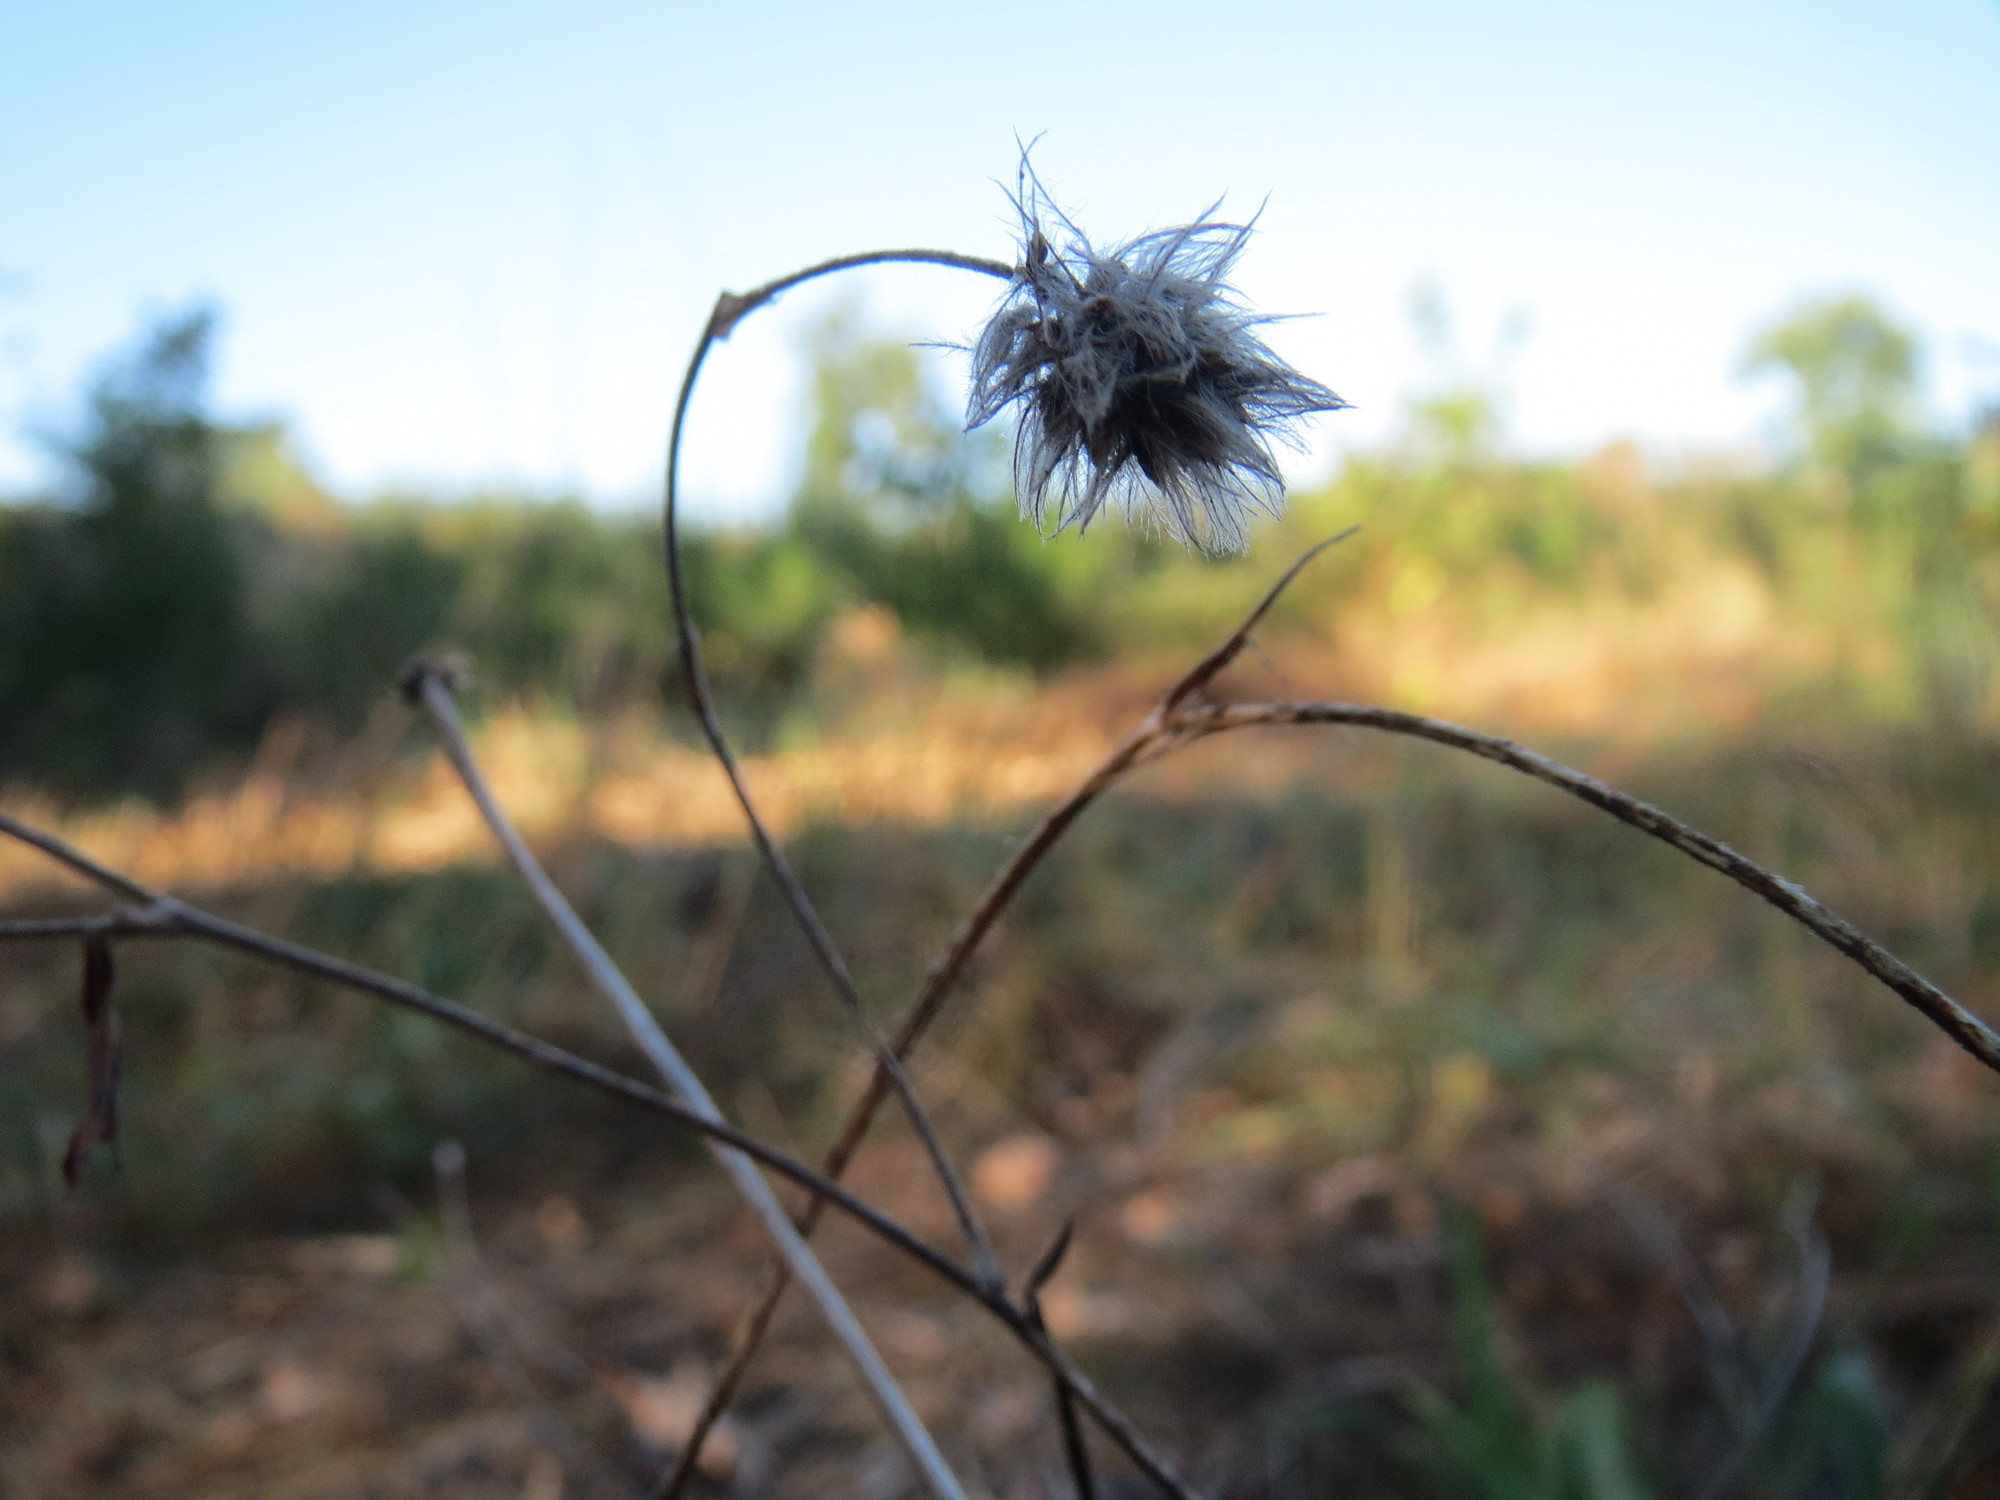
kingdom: Plantae
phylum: Tracheophyta
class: Magnoliopsida
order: Fabales
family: Fabaceae
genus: Trifolium
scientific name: Trifolium arvense
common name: Hare's-foot clover
